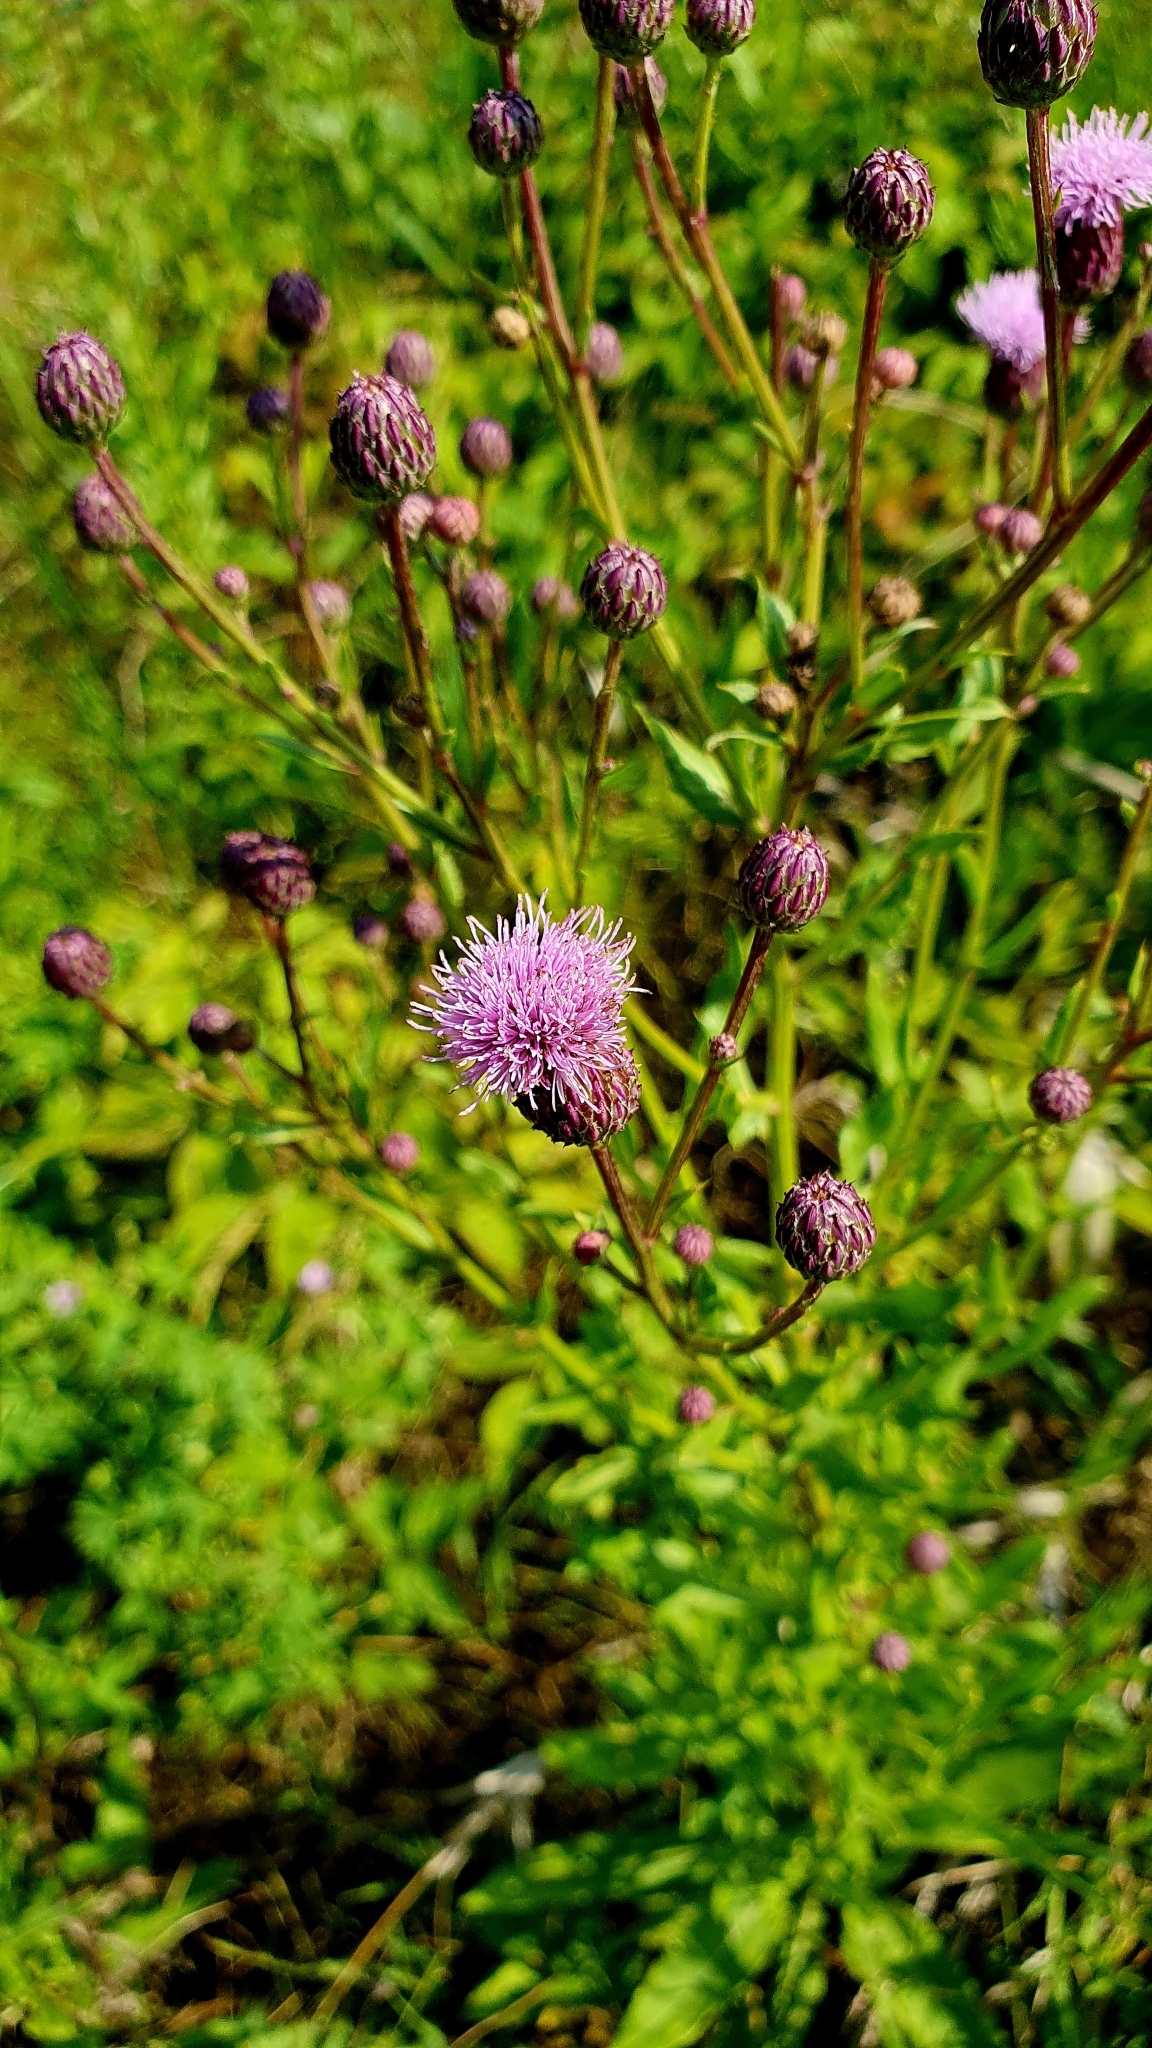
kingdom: Plantae
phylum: Tracheophyta
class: Magnoliopsida
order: Asterales
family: Asteraceae
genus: Cirsium
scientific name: Cirsium arvense
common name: Creeping thistle
